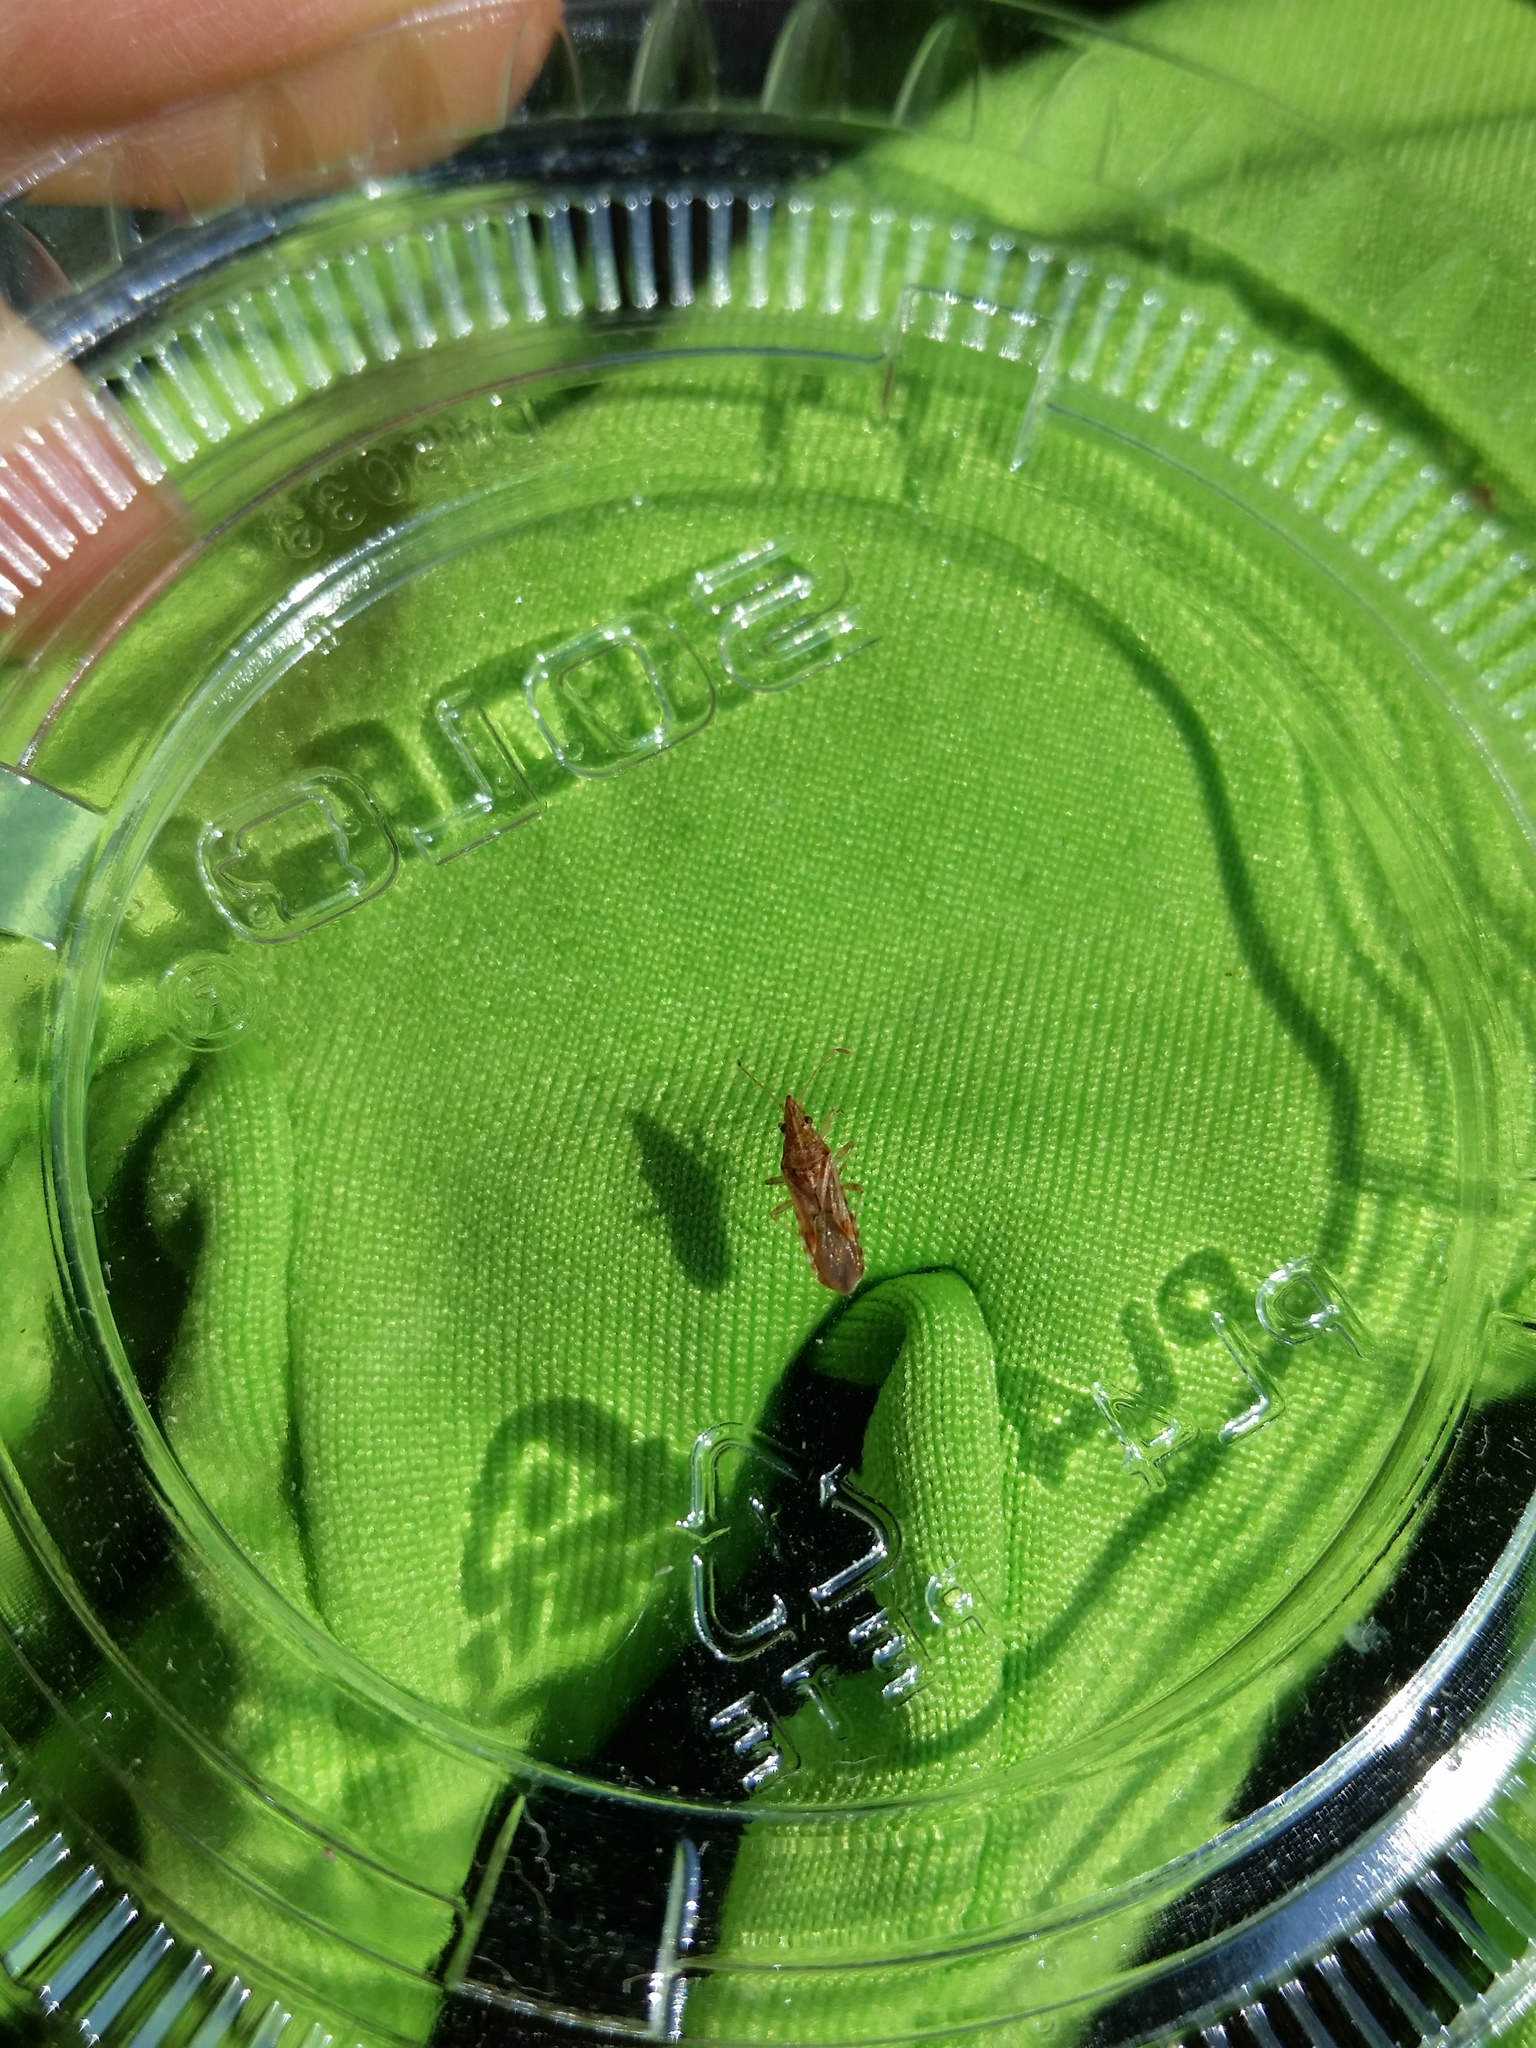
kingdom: Animalia
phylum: Arthropoda
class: Insecta
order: Hemiptera
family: Lygaeidae
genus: Belonochilus
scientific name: Belonochilus numenius
